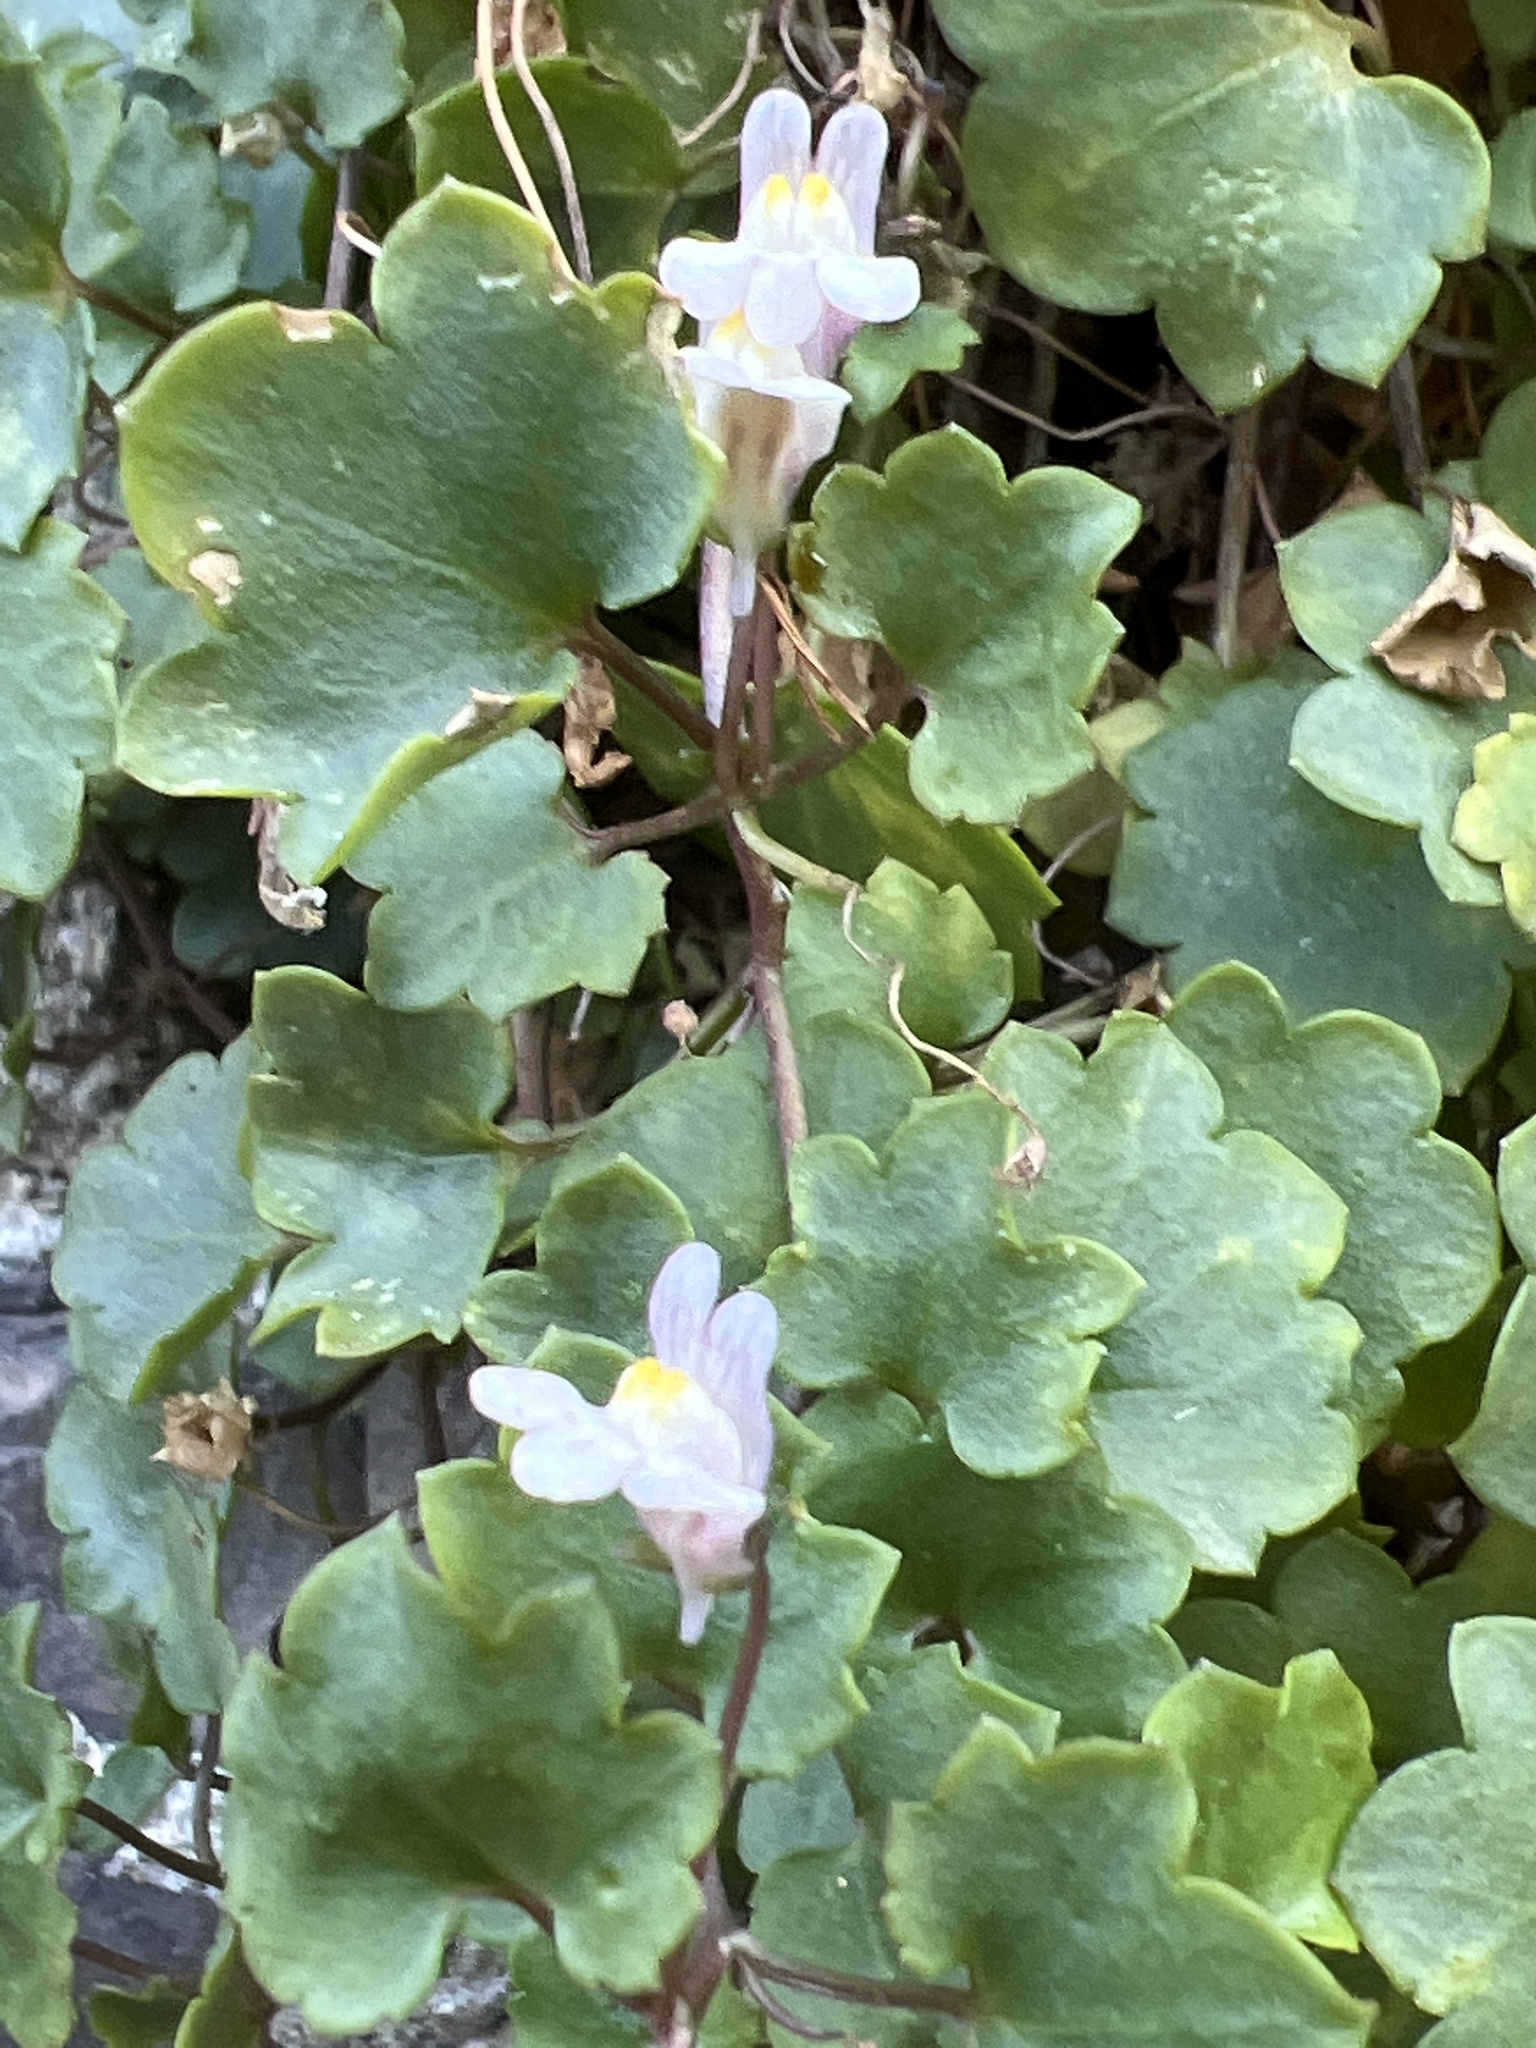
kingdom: Plantae
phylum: Tracheophyta
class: Magnoliopsida
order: Lamiales
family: Plantaginaceae
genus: Cymbalaria
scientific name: Cymbalaria muralis
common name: Ivy-leaved toadflax
